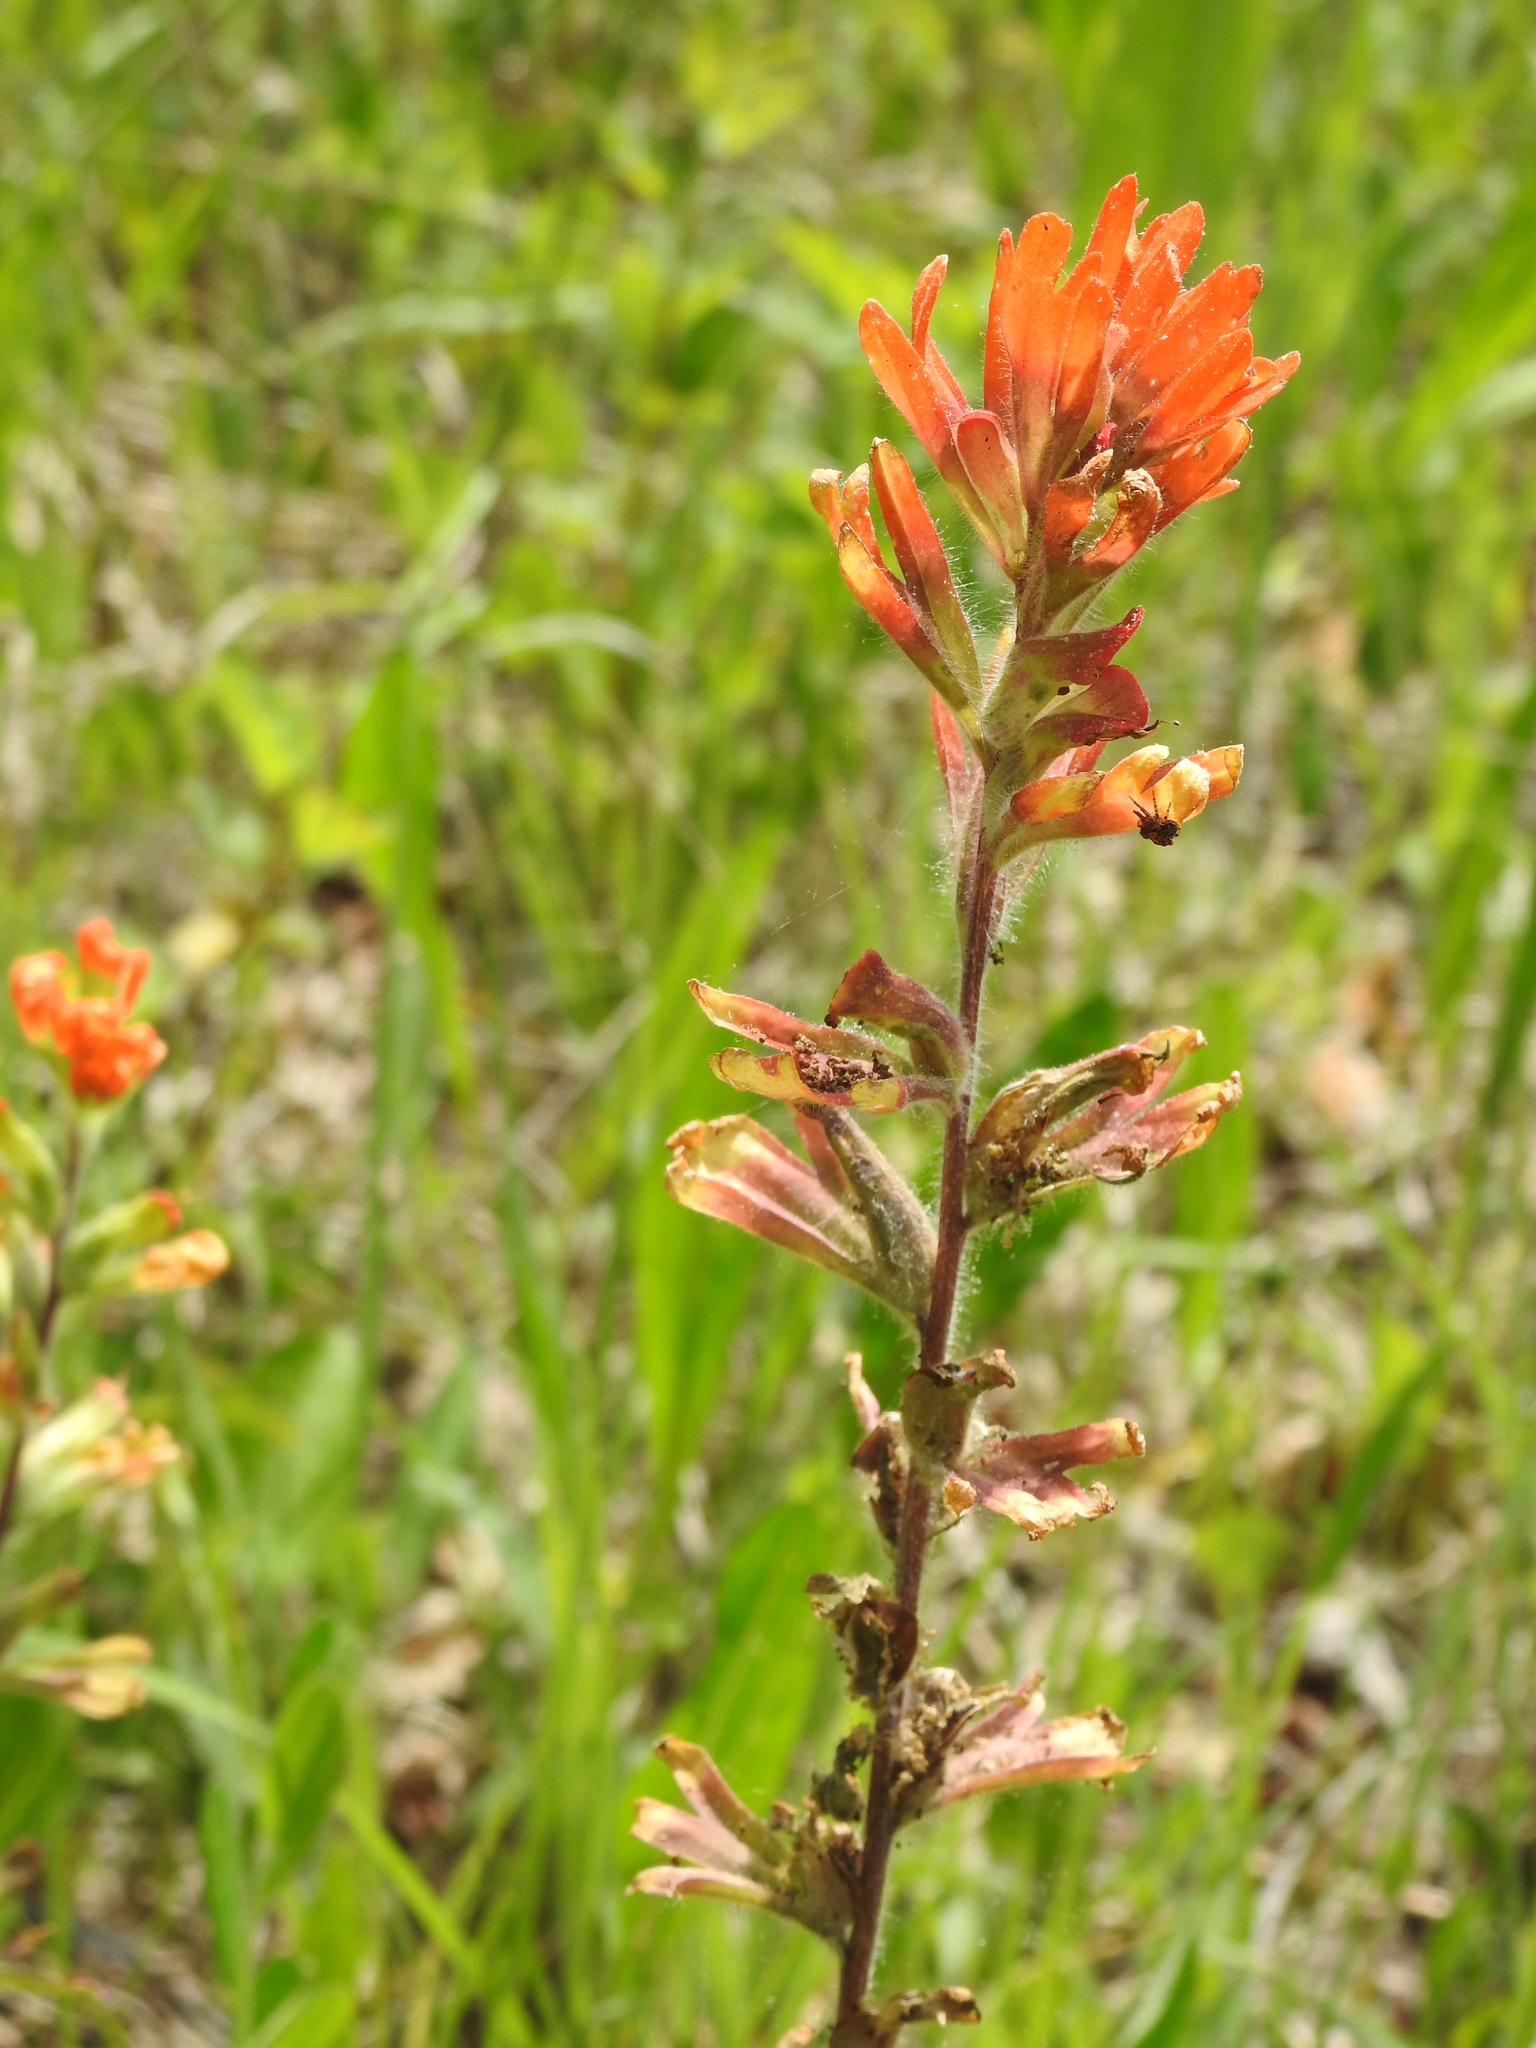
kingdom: Plantae
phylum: Tracheophyta
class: Magnoliopsida
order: Lamiales
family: Orobanchaceae
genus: Castilleja
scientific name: Castilleja coccinea
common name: Scarlet paintbrush
